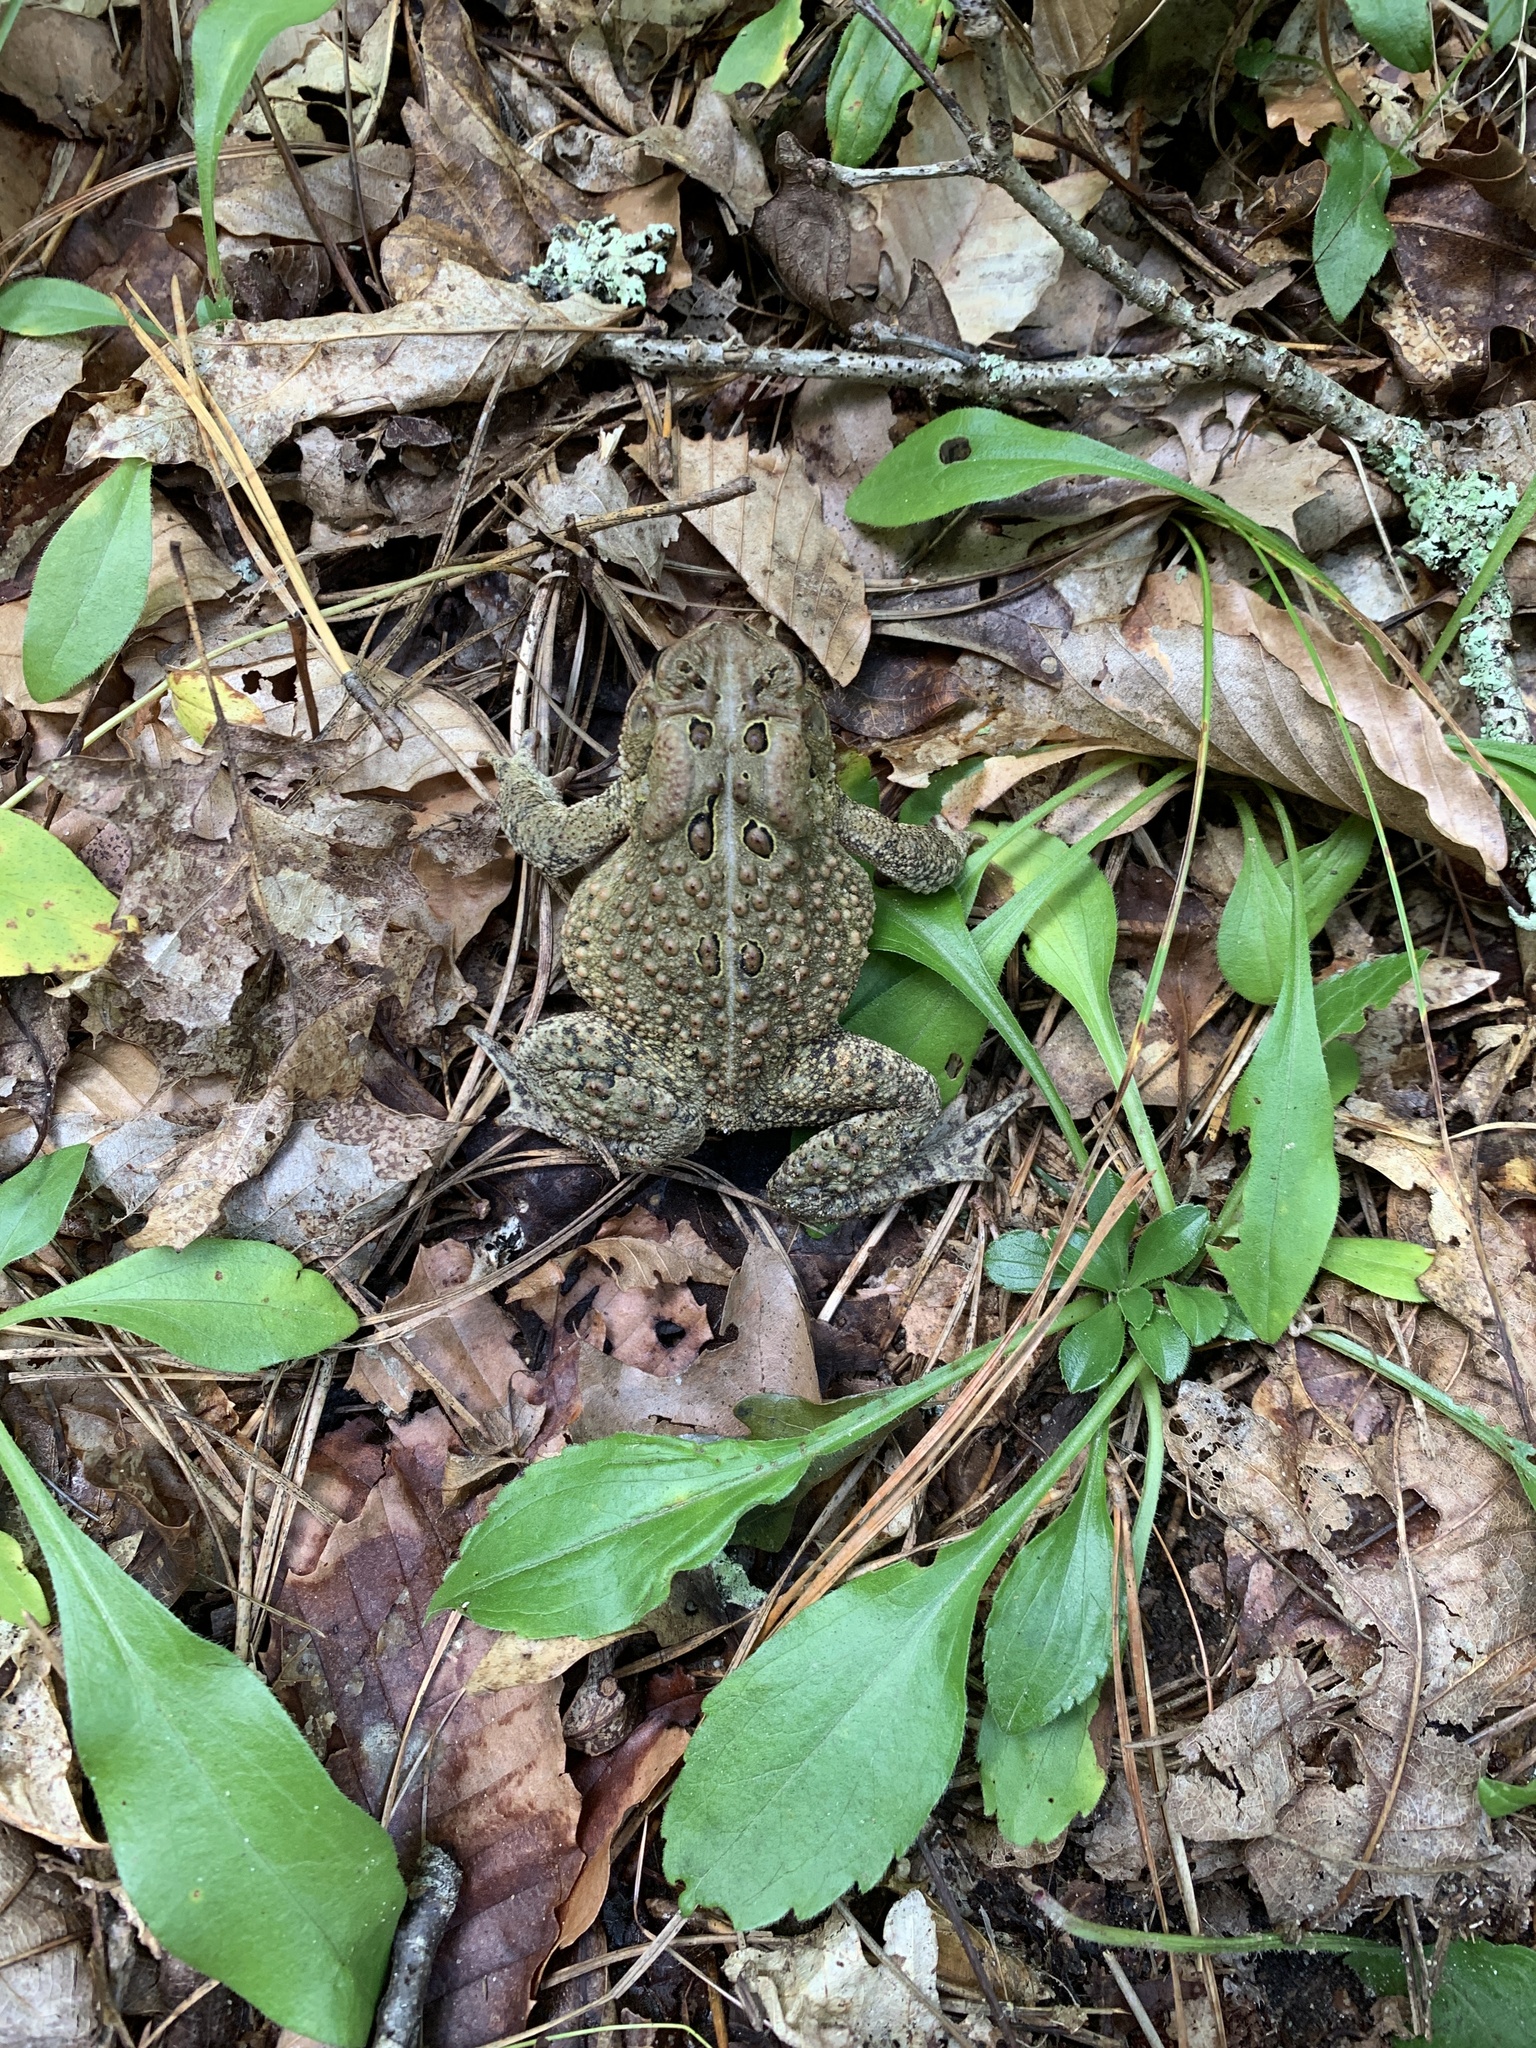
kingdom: Animalia
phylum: Chordata
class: Amphibia
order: Anura
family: Bufonidae
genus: Anaxyrus
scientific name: Anaxyrus americanus
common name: American toad
